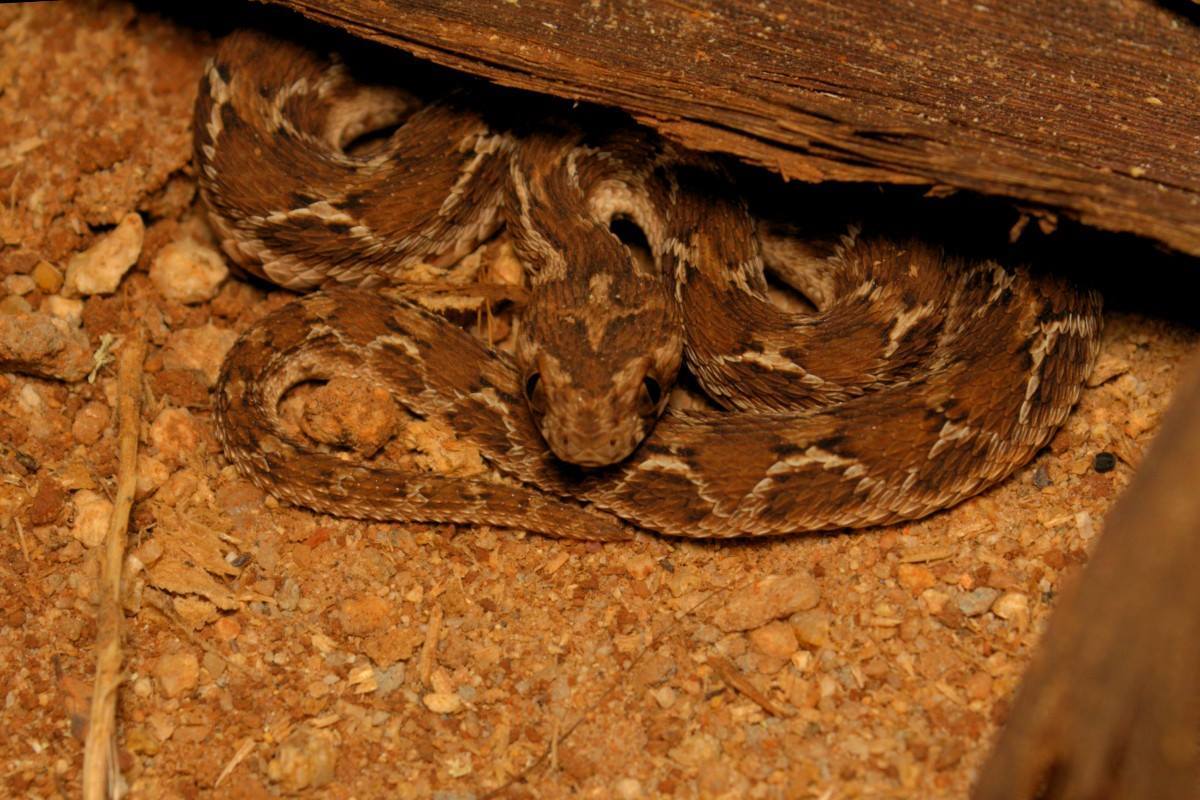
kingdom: Animalia
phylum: Chordata
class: Squamata
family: Viperidae
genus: Echis
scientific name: Echis carinatus
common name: Saw-scaled viper
